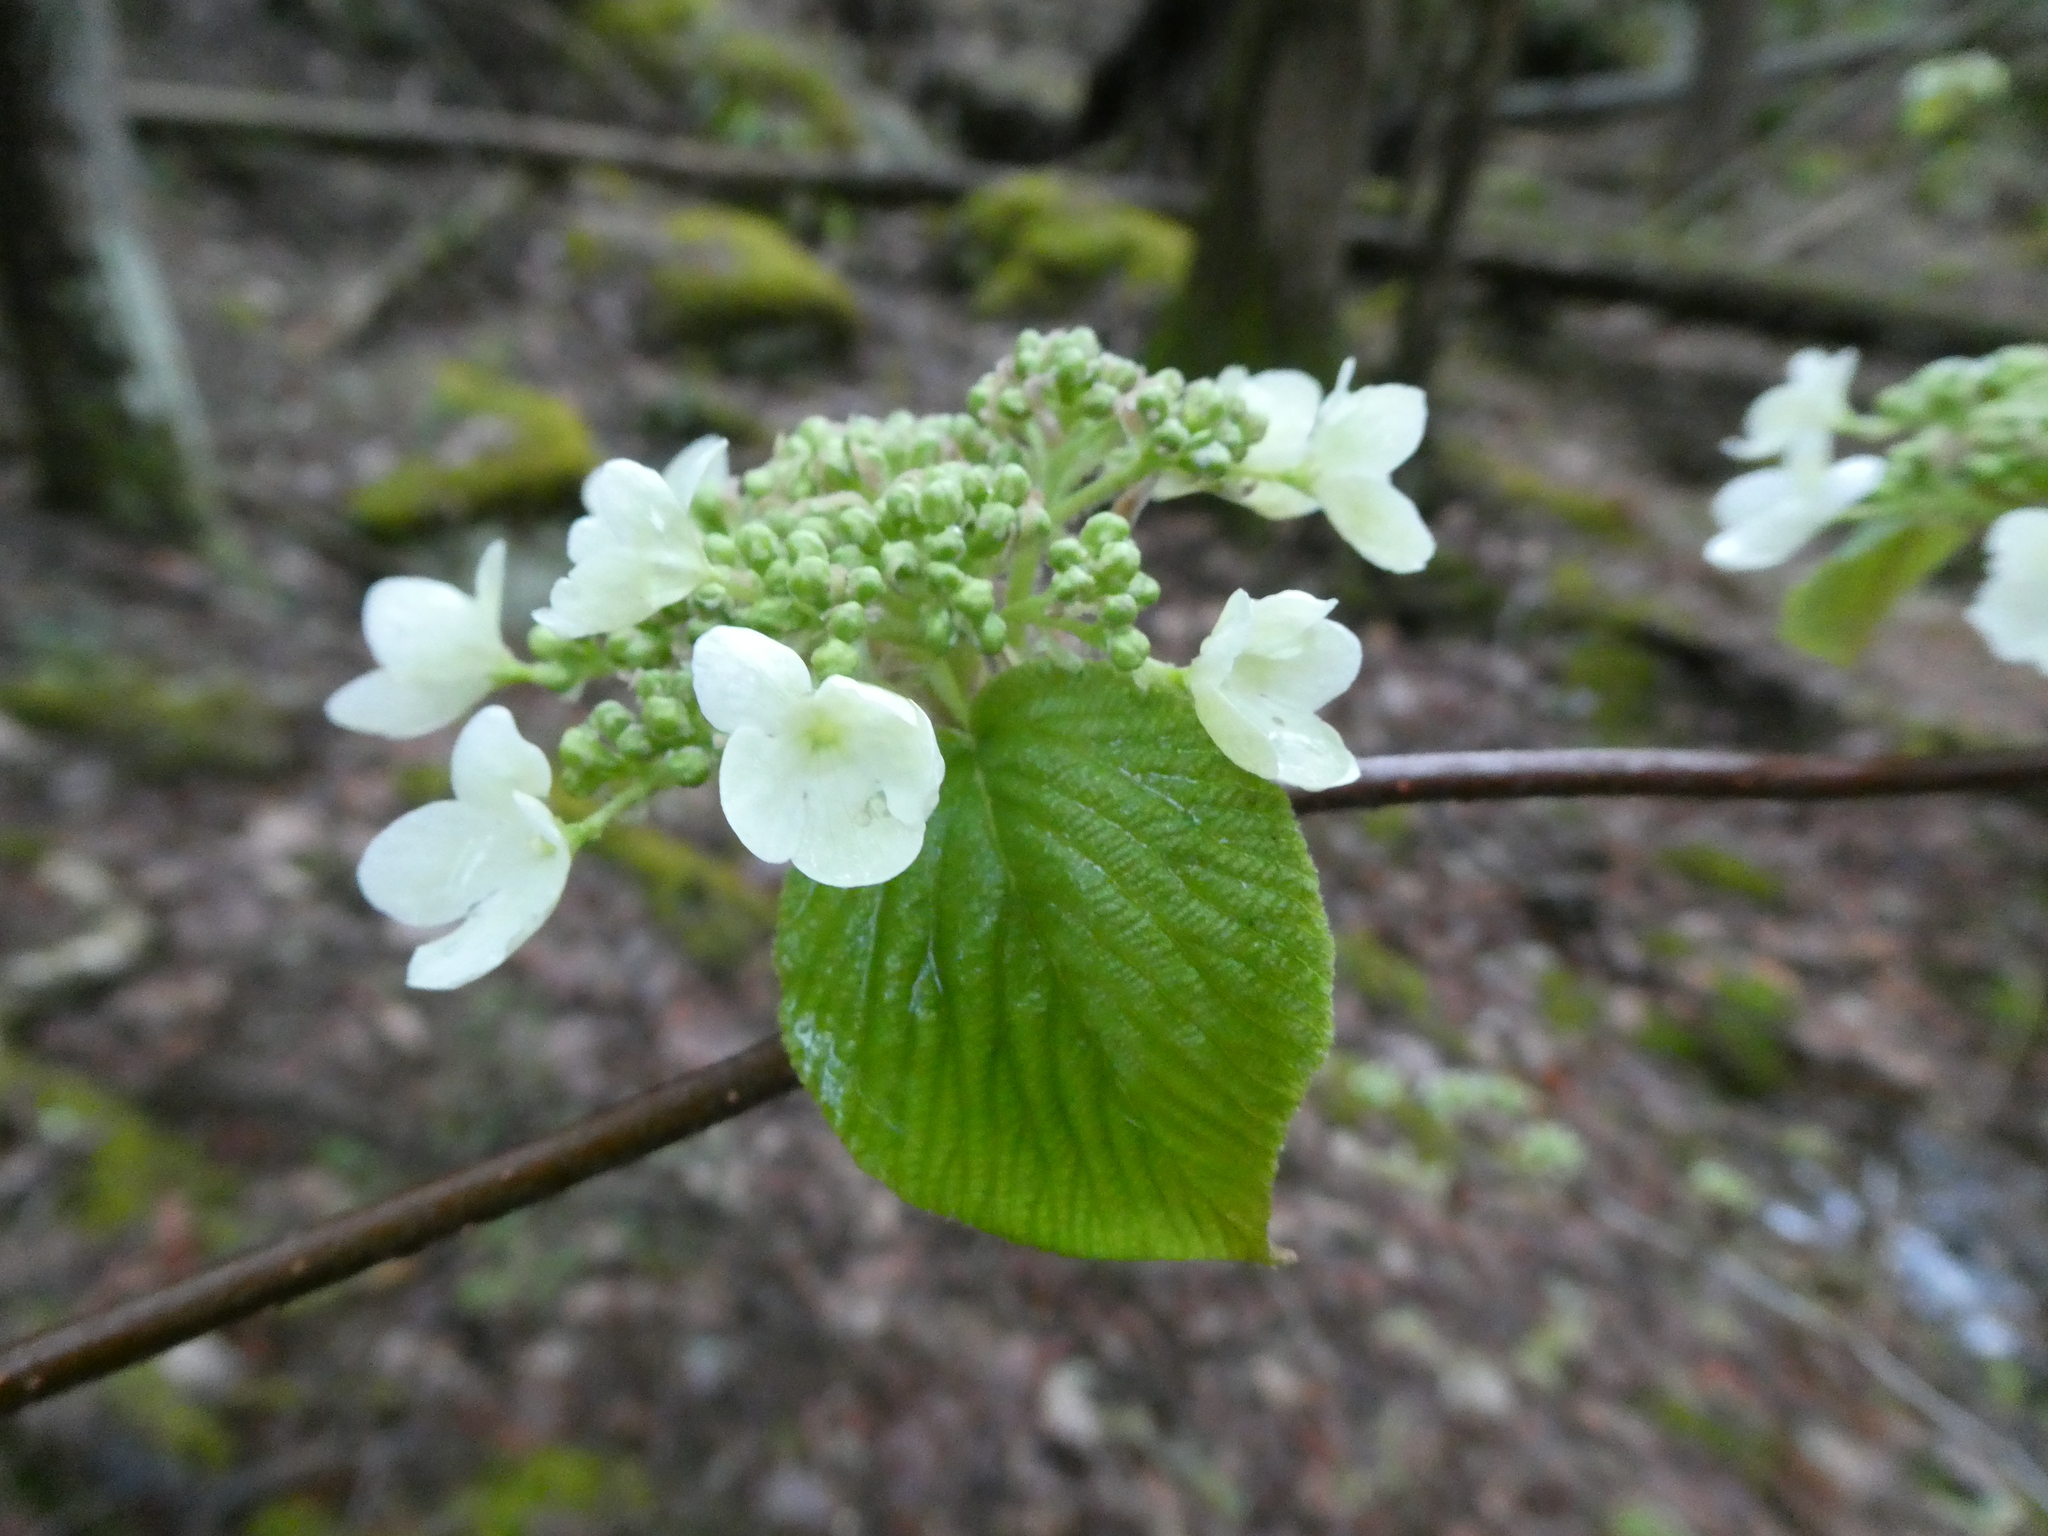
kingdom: Plantae
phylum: Tracheophyta
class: Magnoliopsida
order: Dipsacales
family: Viburnaceae
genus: Viburnum
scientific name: Viburnum lantanoides
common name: Hobblebush
